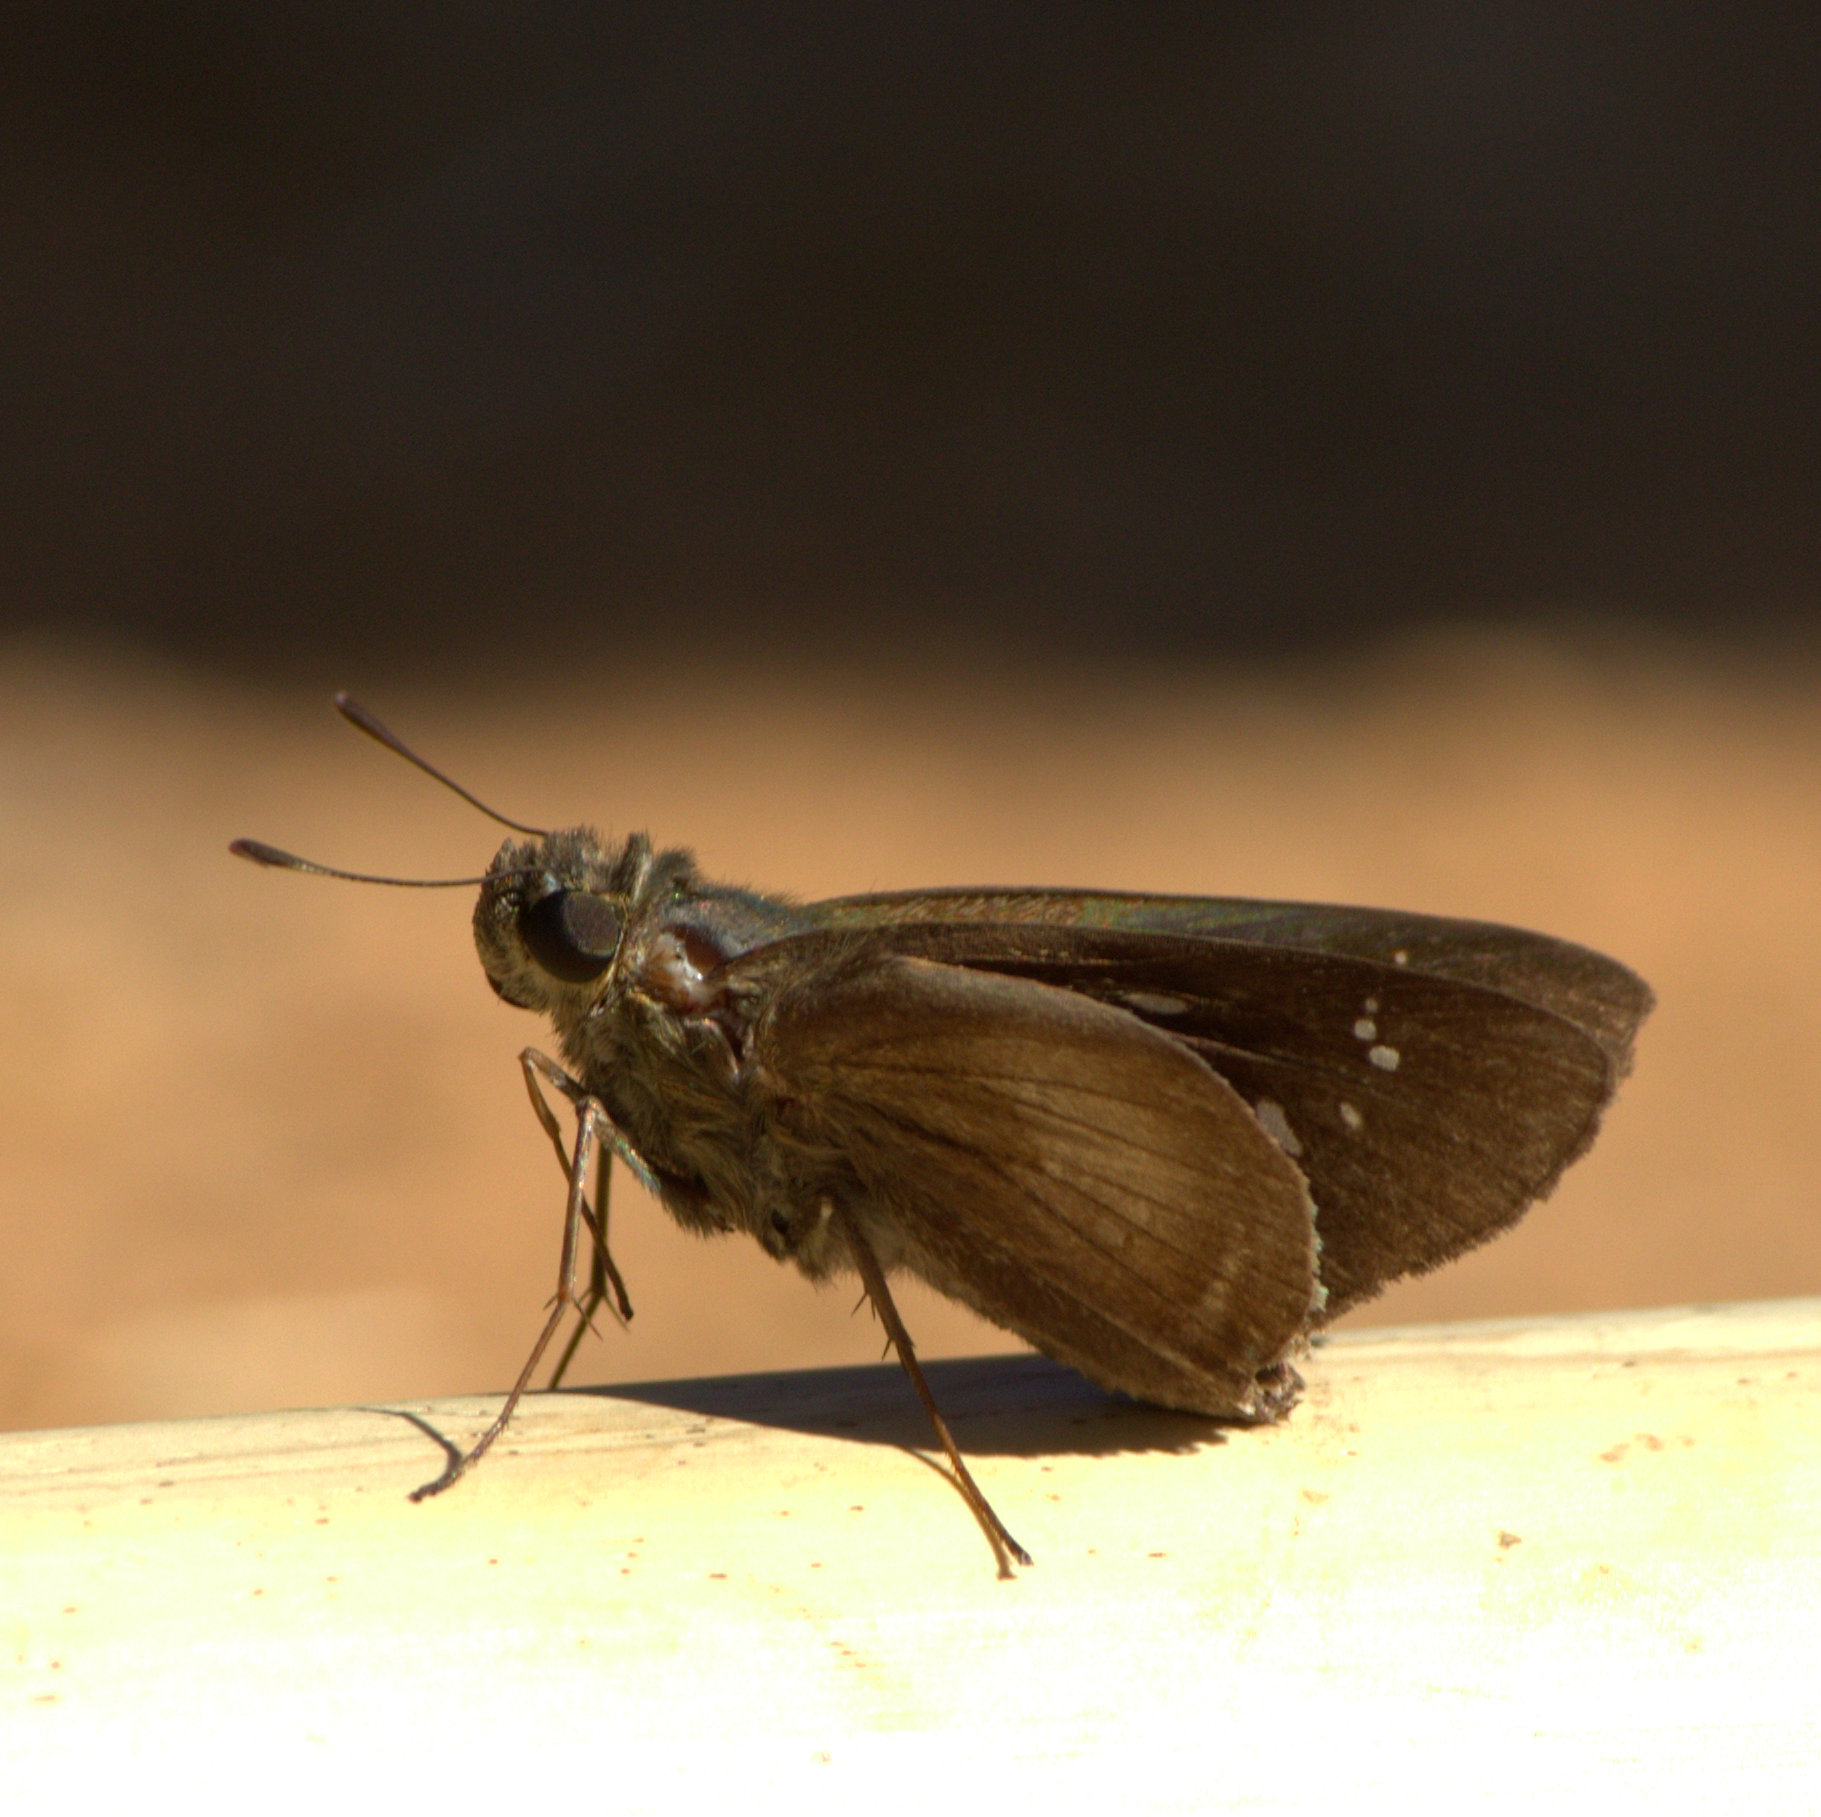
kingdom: Animalia
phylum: Arthropoda
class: Insecta
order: Lepidoptera
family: Hesperiidae
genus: Caltoris
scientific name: Caltoris canaraica
